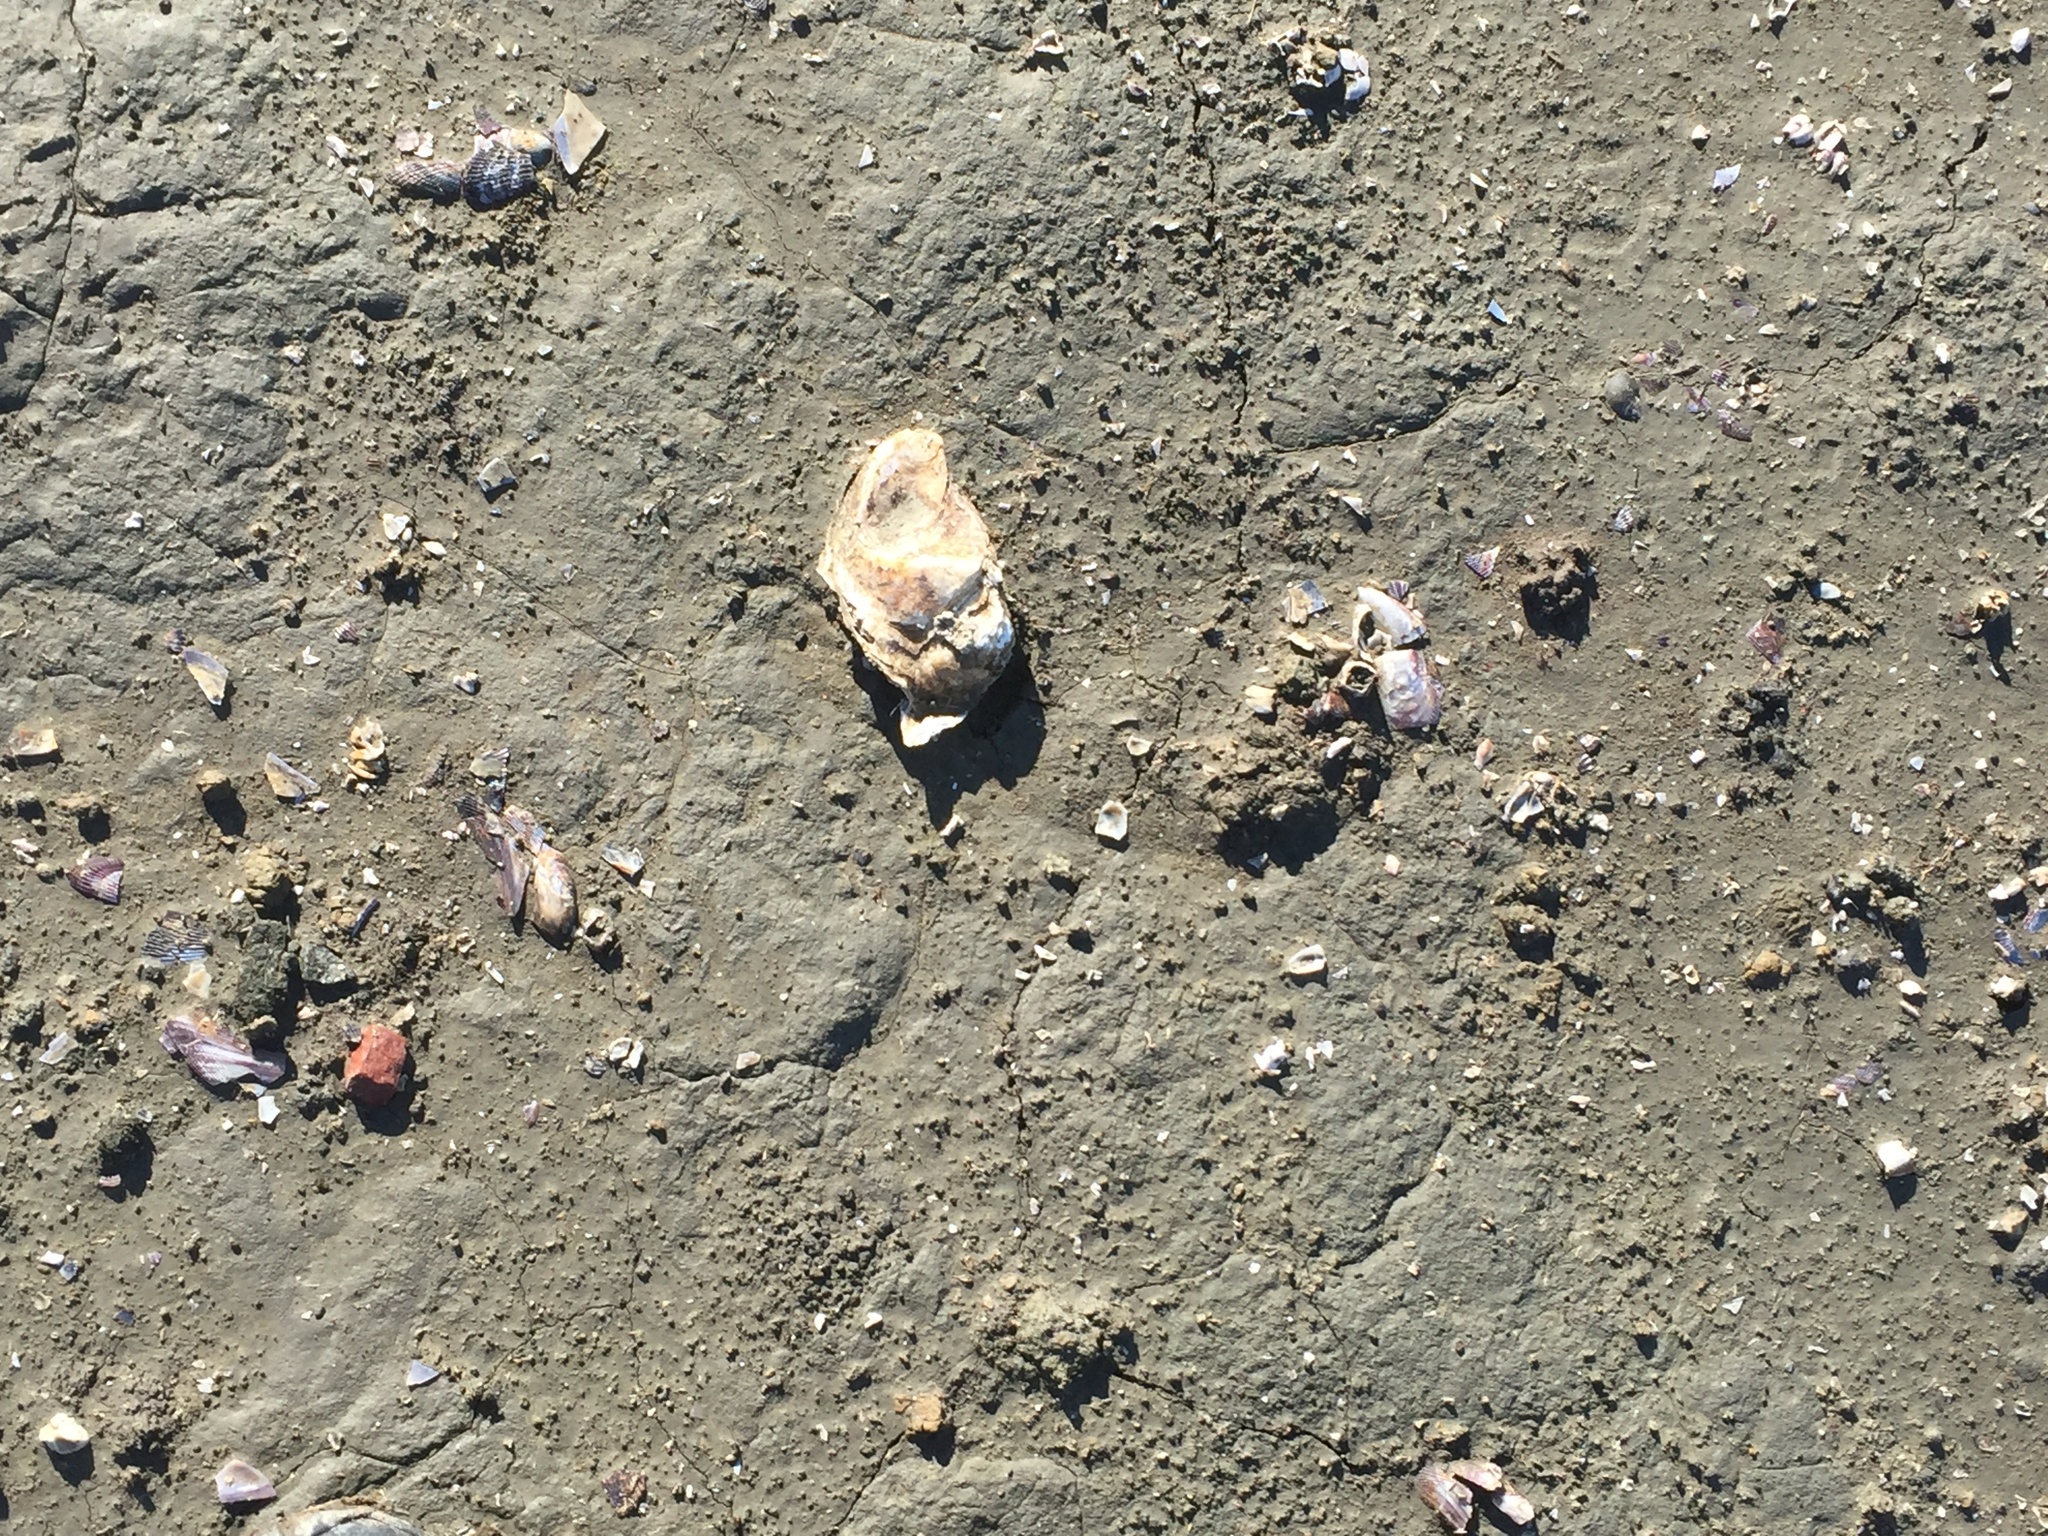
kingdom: Animalia
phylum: Mollusca
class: Bivalvia
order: Ostreida
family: Ostreidae
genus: Magallana
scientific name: Magallana gigas
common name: Pacific oyster
